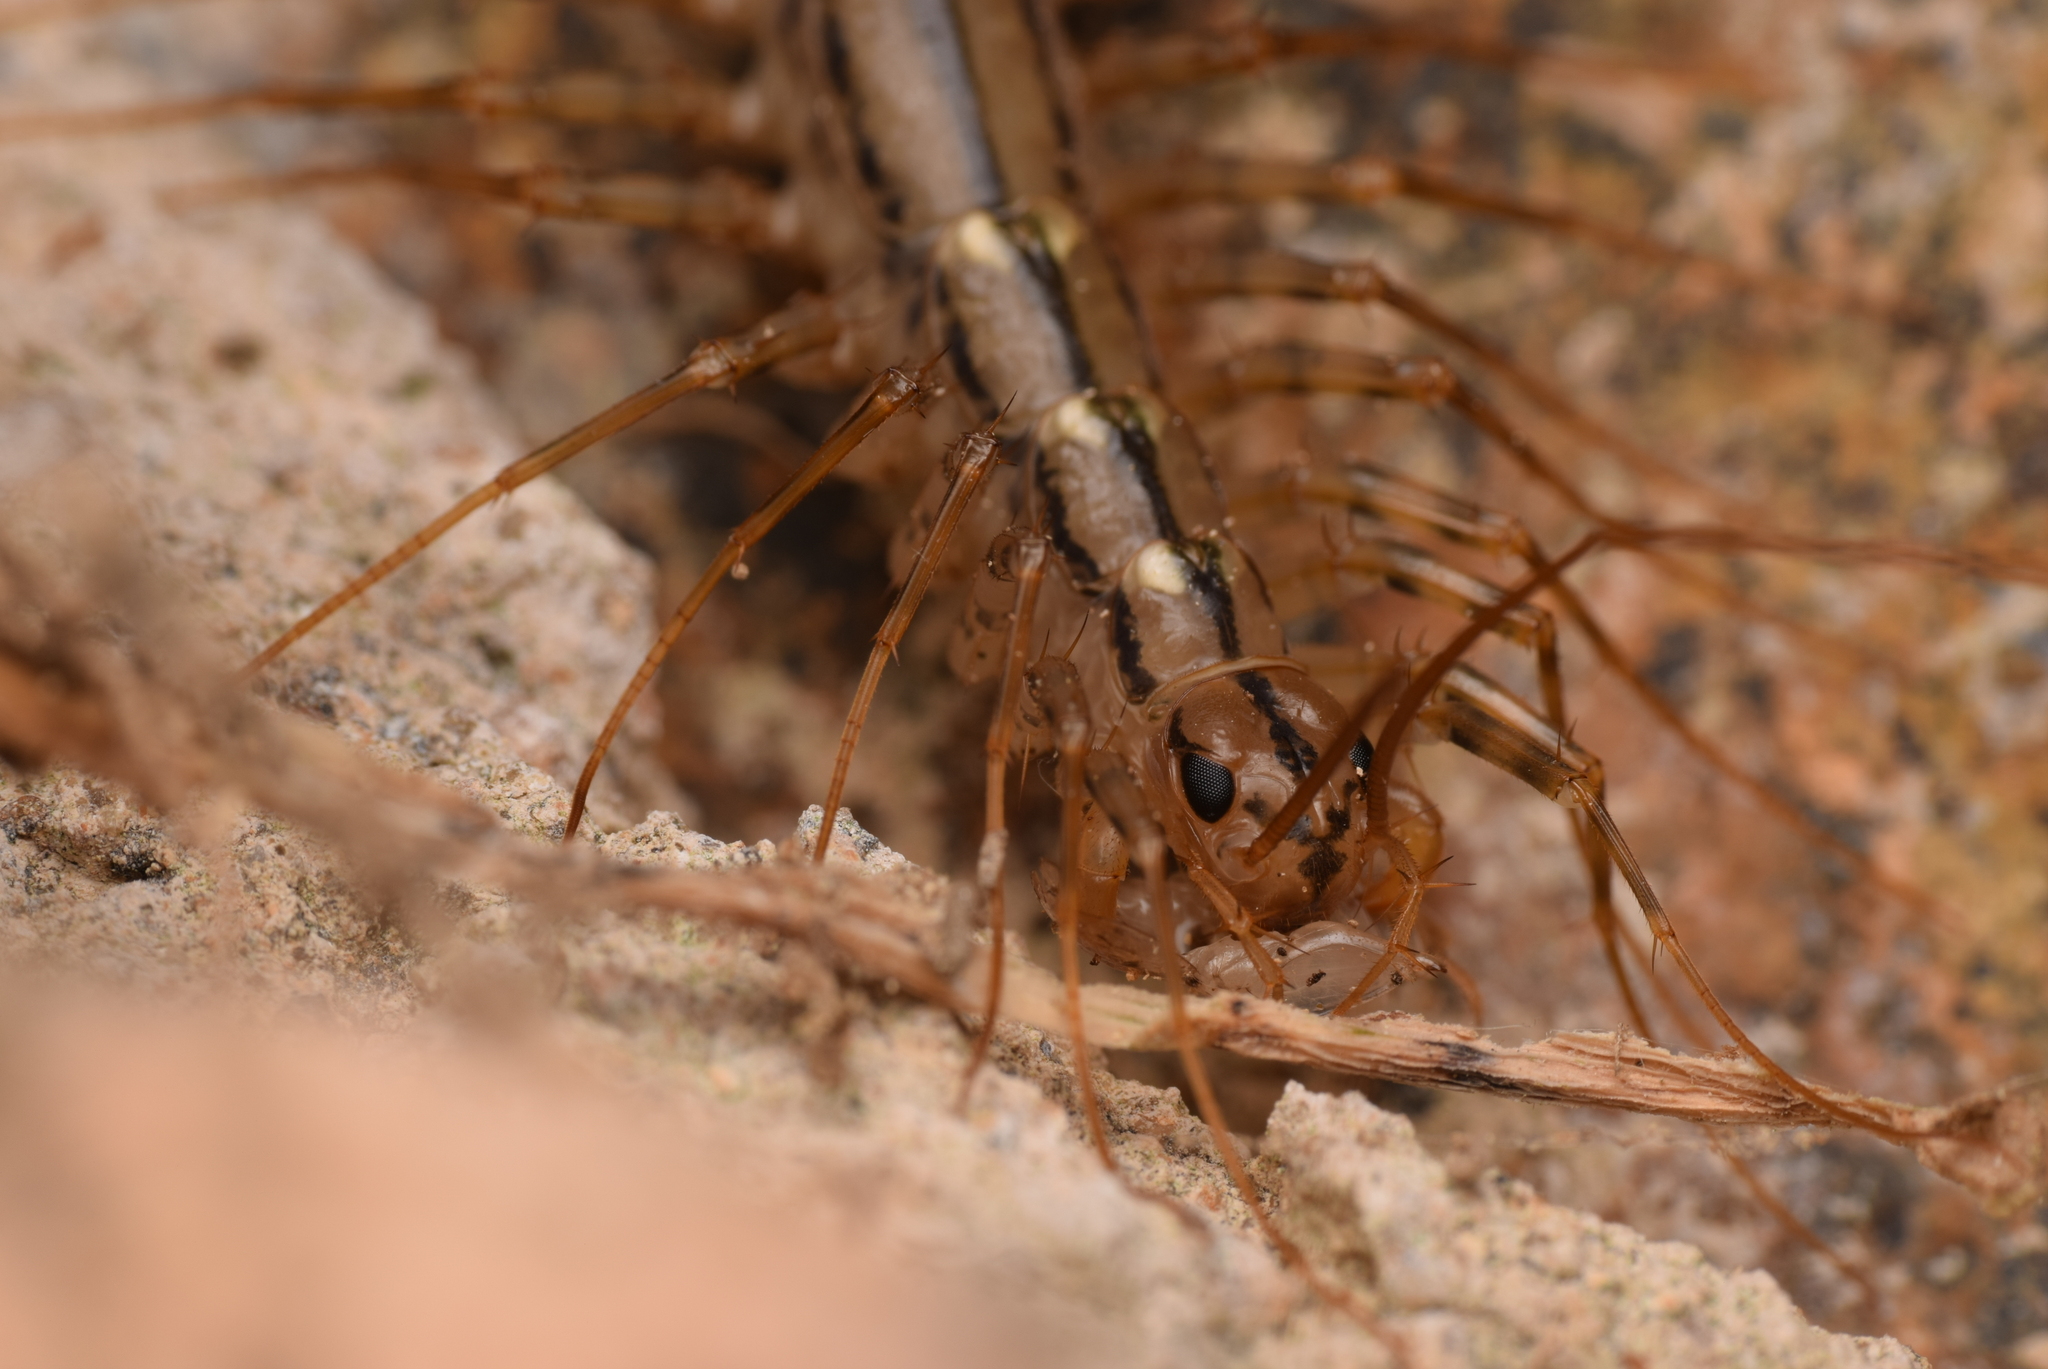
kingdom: Animalia
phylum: Arthropoda
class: Chilopoda
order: Scutigeromorpha
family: Scutigeridae
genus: Scutigera
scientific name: Scutigera coleoptrata
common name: House centipede
